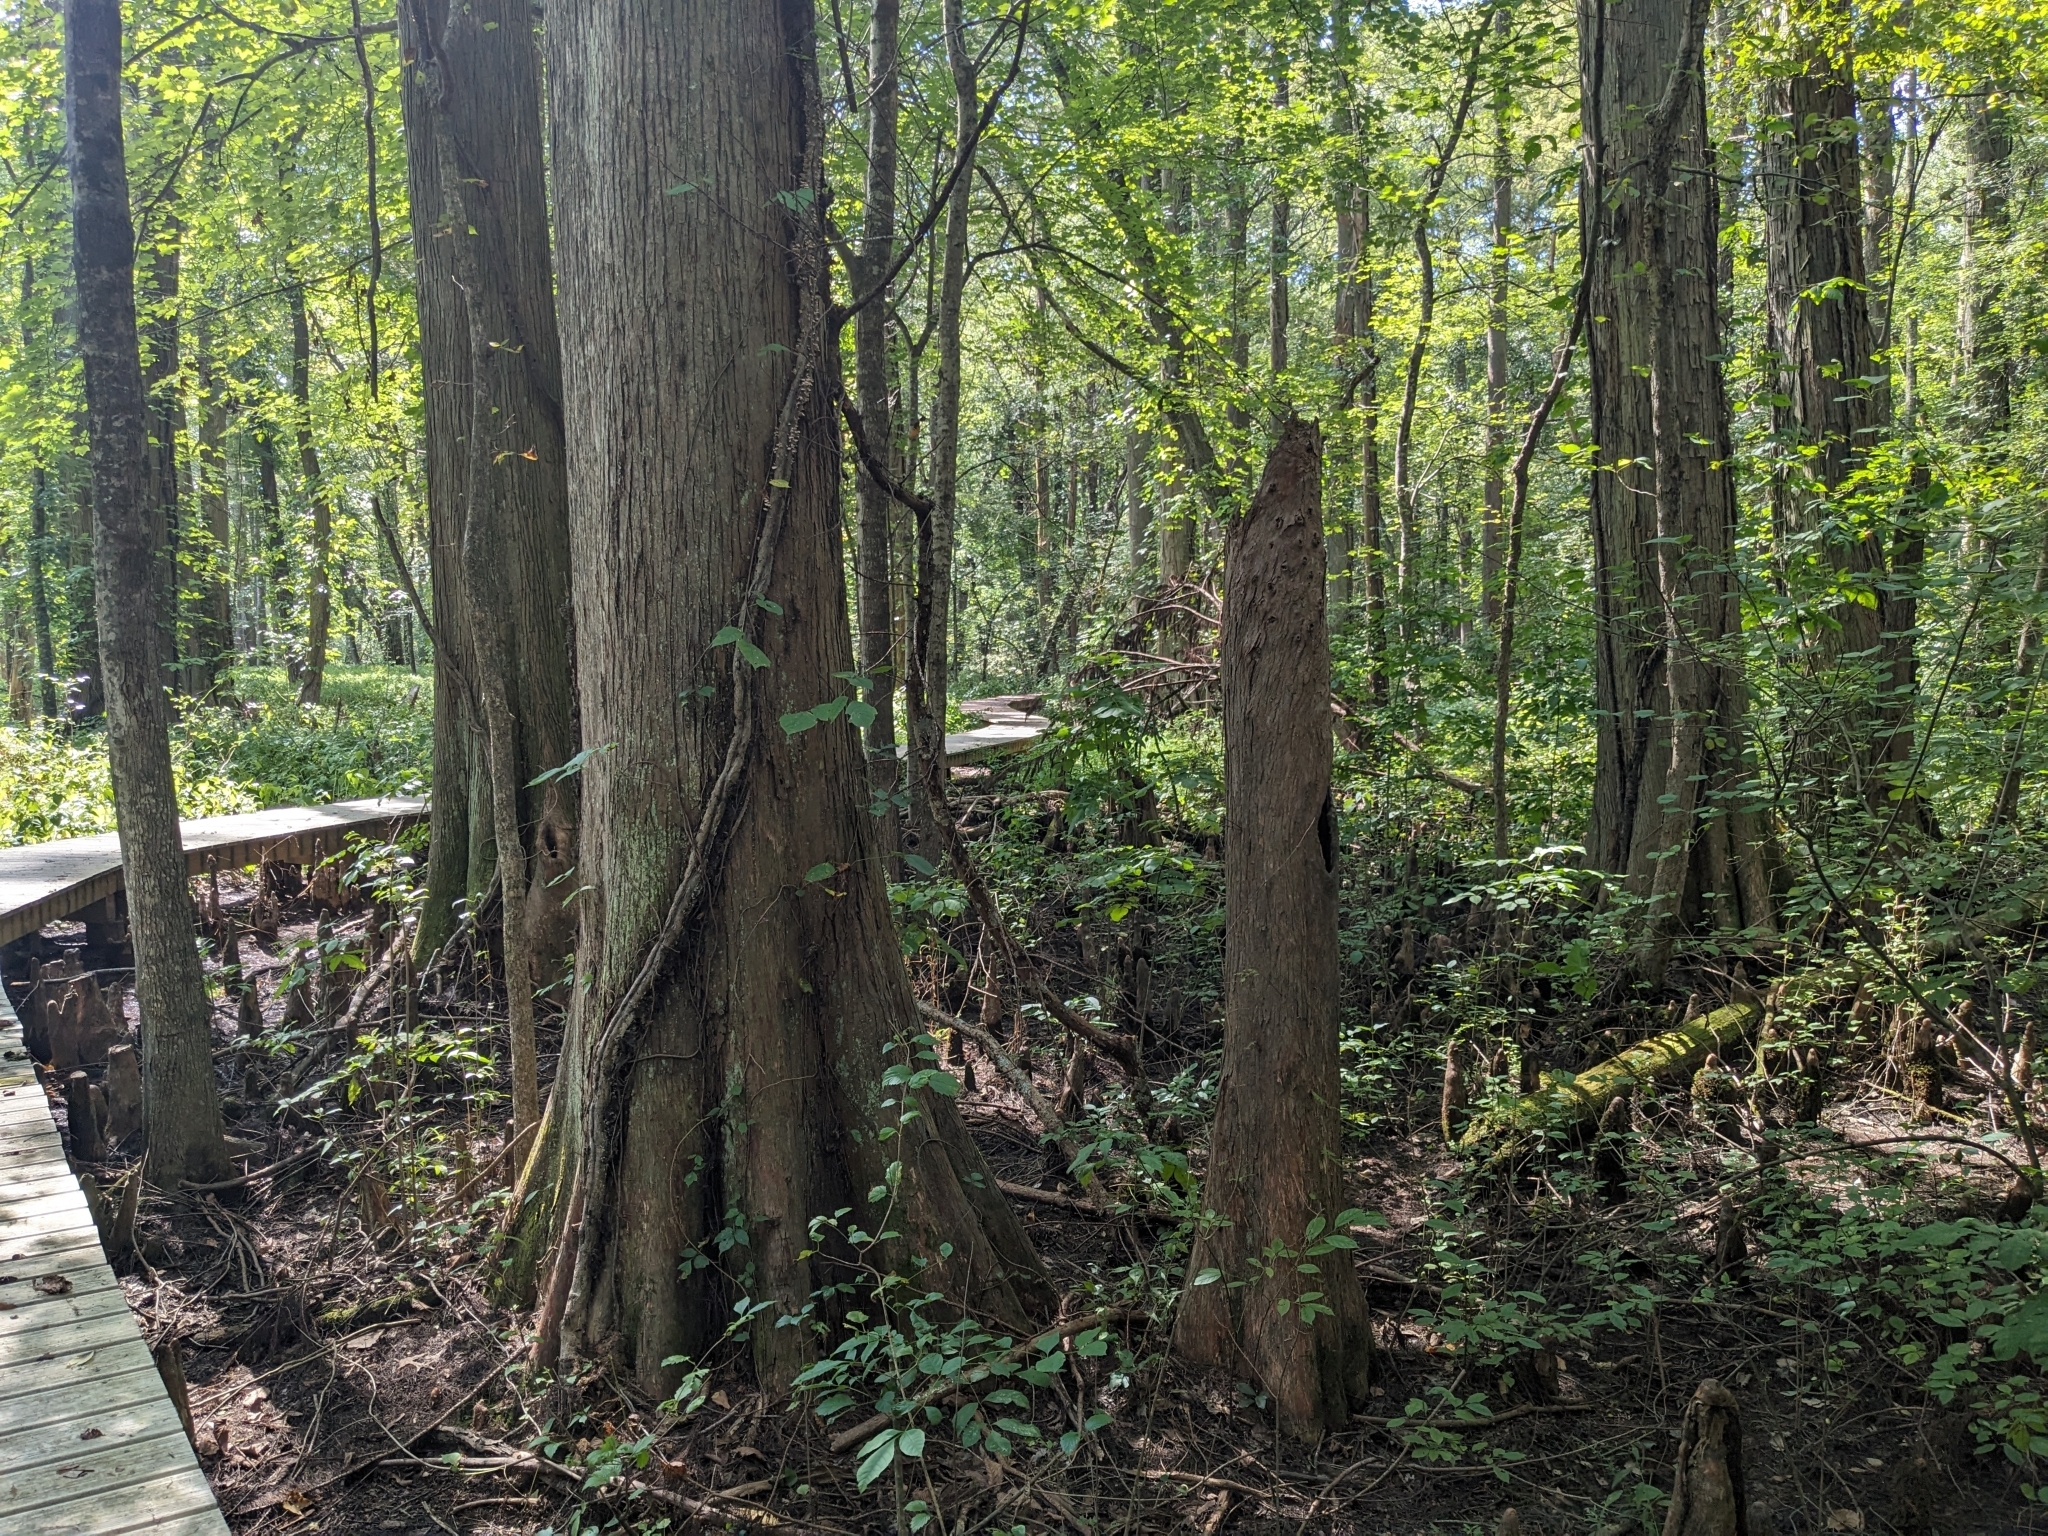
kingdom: Plantae
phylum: Tracheophyta
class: Pinopsida
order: Pinales
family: Cupressaceae
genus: Taxodium
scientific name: Taxodium distichum
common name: Bald cypress
